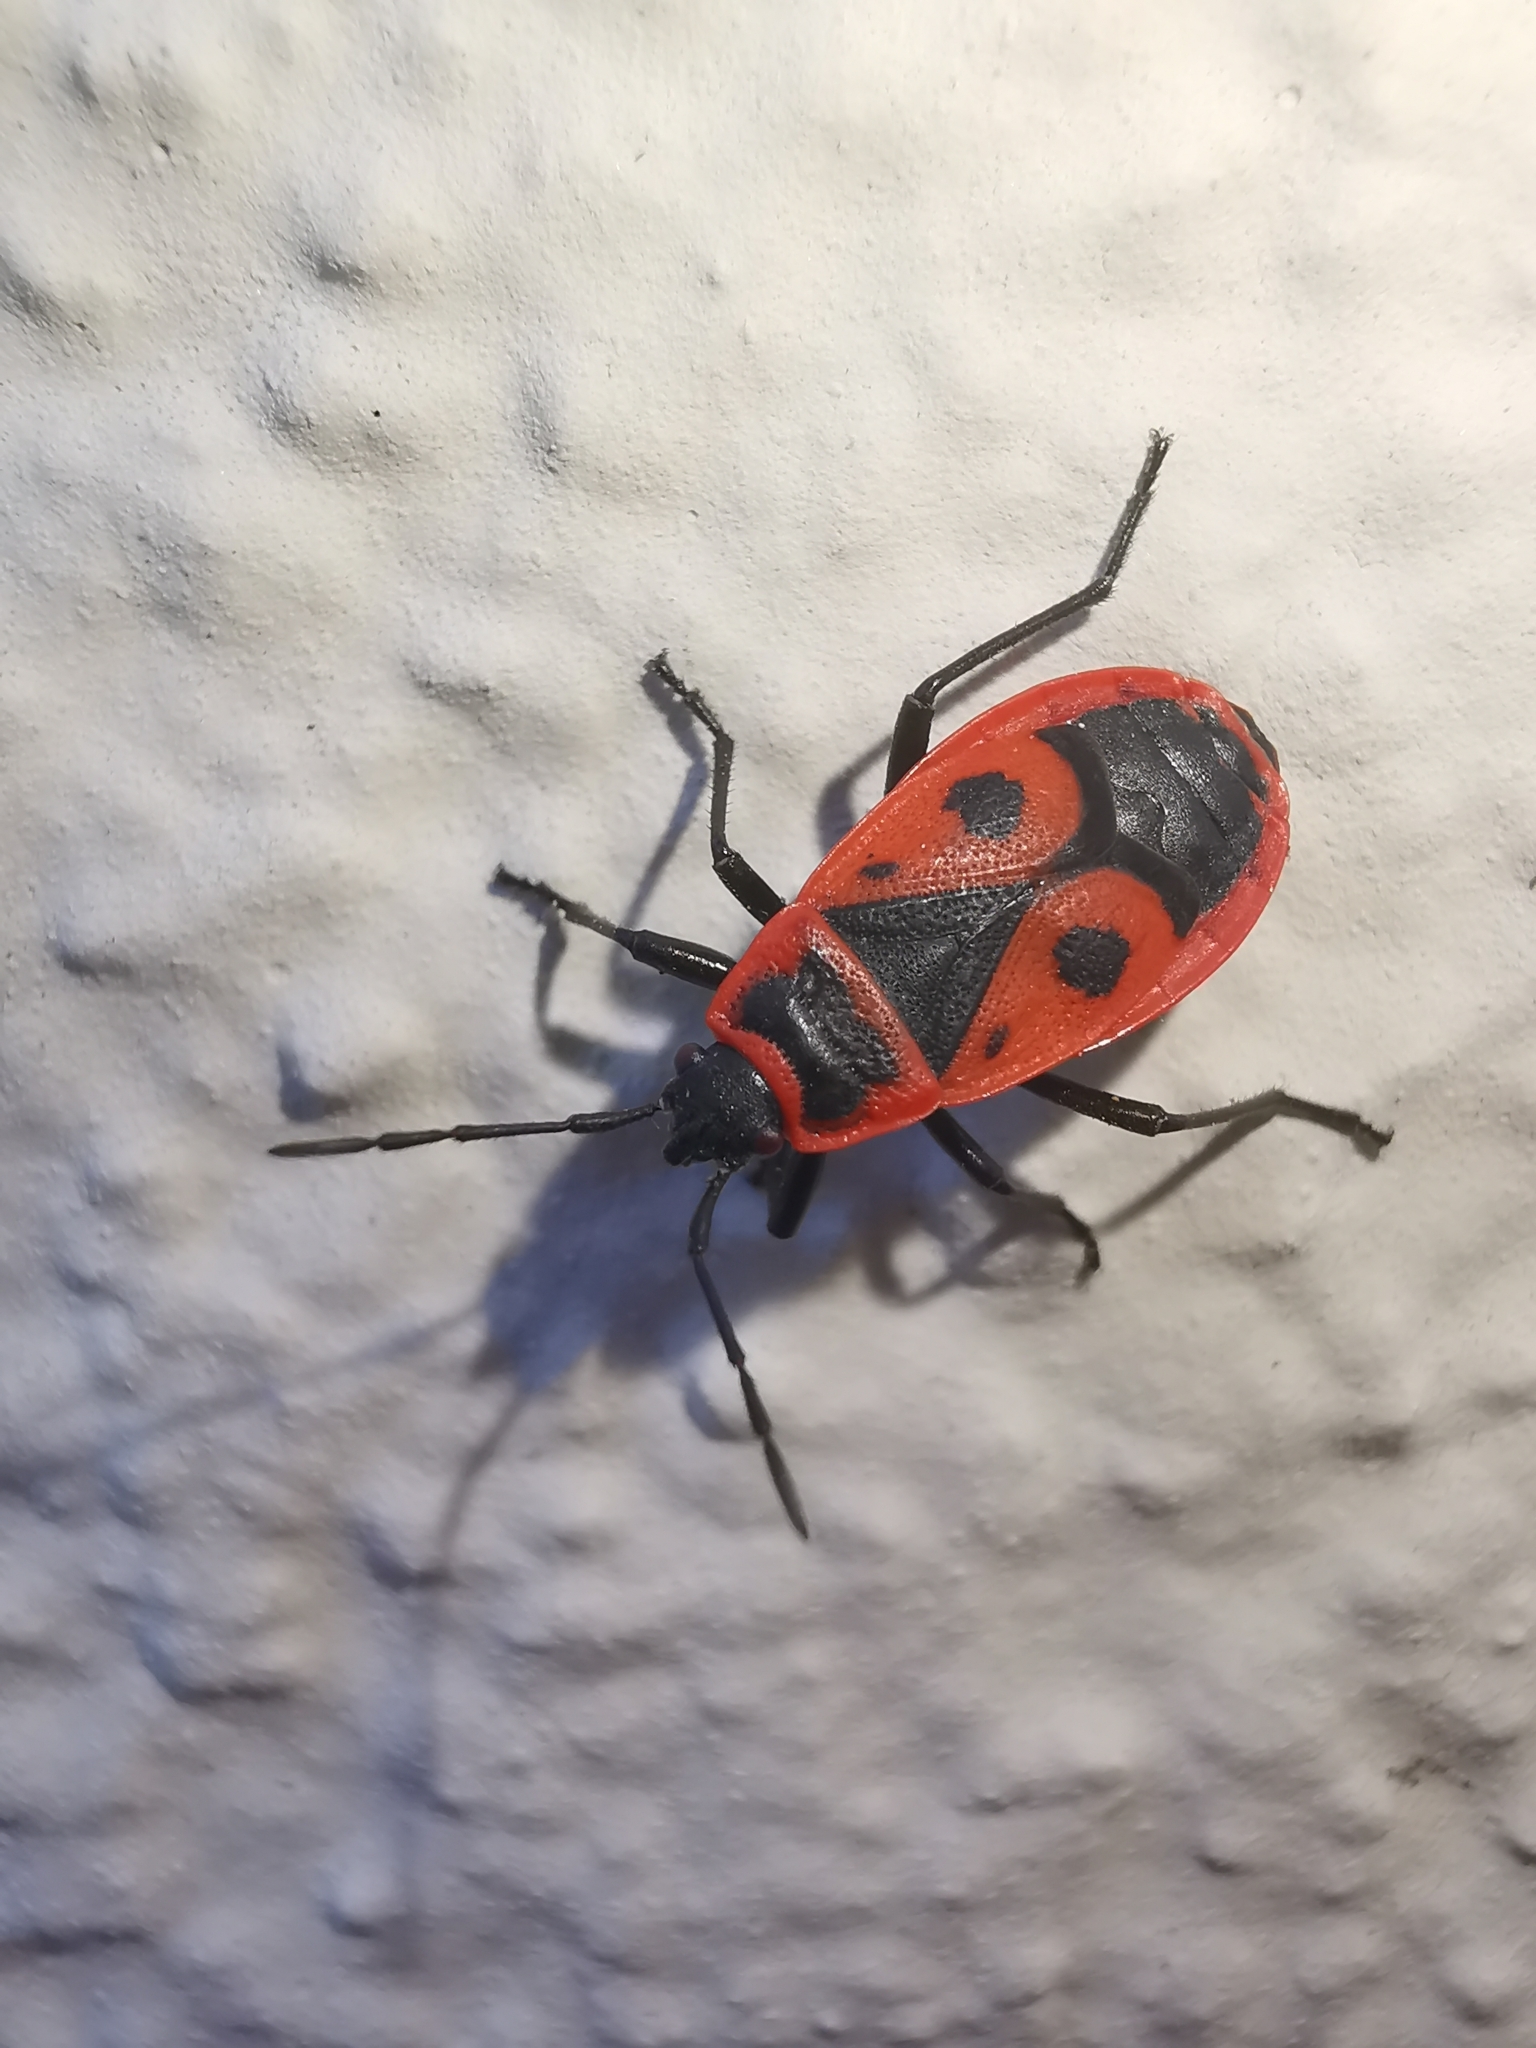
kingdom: Animalia
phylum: Arthropoda
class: Insecta
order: Hemiptera
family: Pyrrhocoridae
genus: Pyrrhocoris
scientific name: Pyrrhocoris apterus
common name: Firebug
